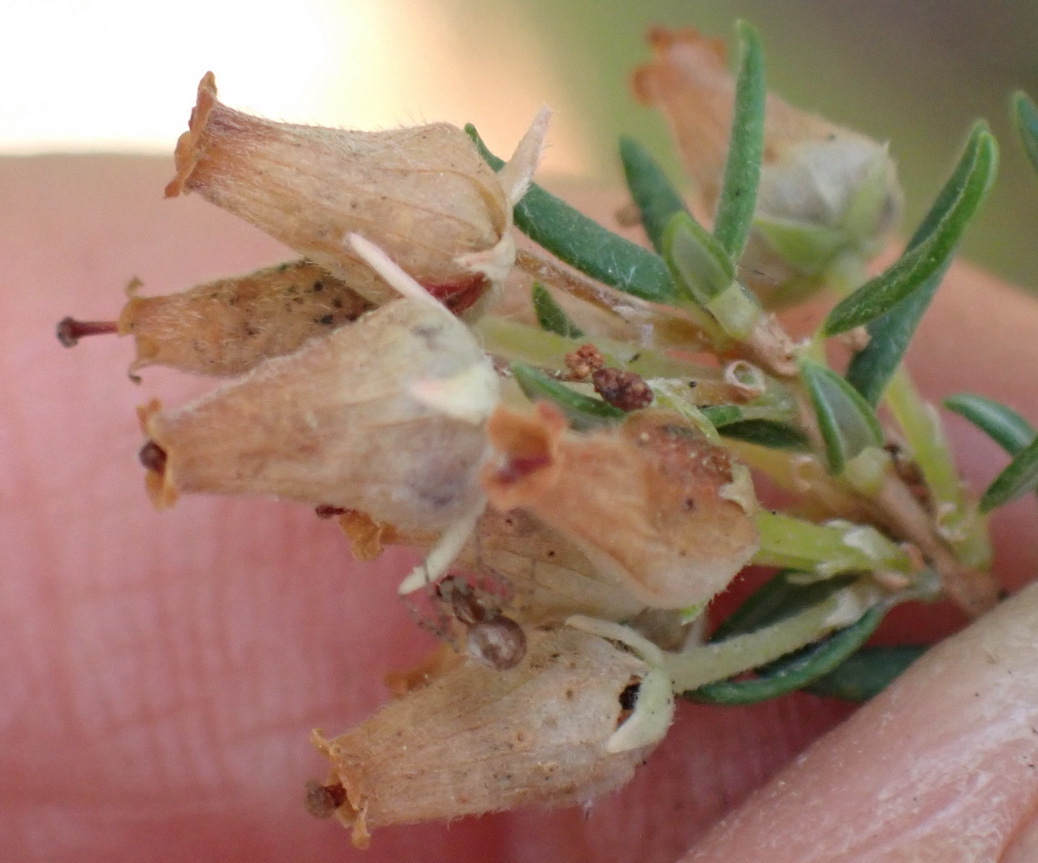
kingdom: Plantae
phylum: Tracheophyta
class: Magnoliopsida
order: Ericales
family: Ericaceae
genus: Erica
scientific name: Erica caffra
